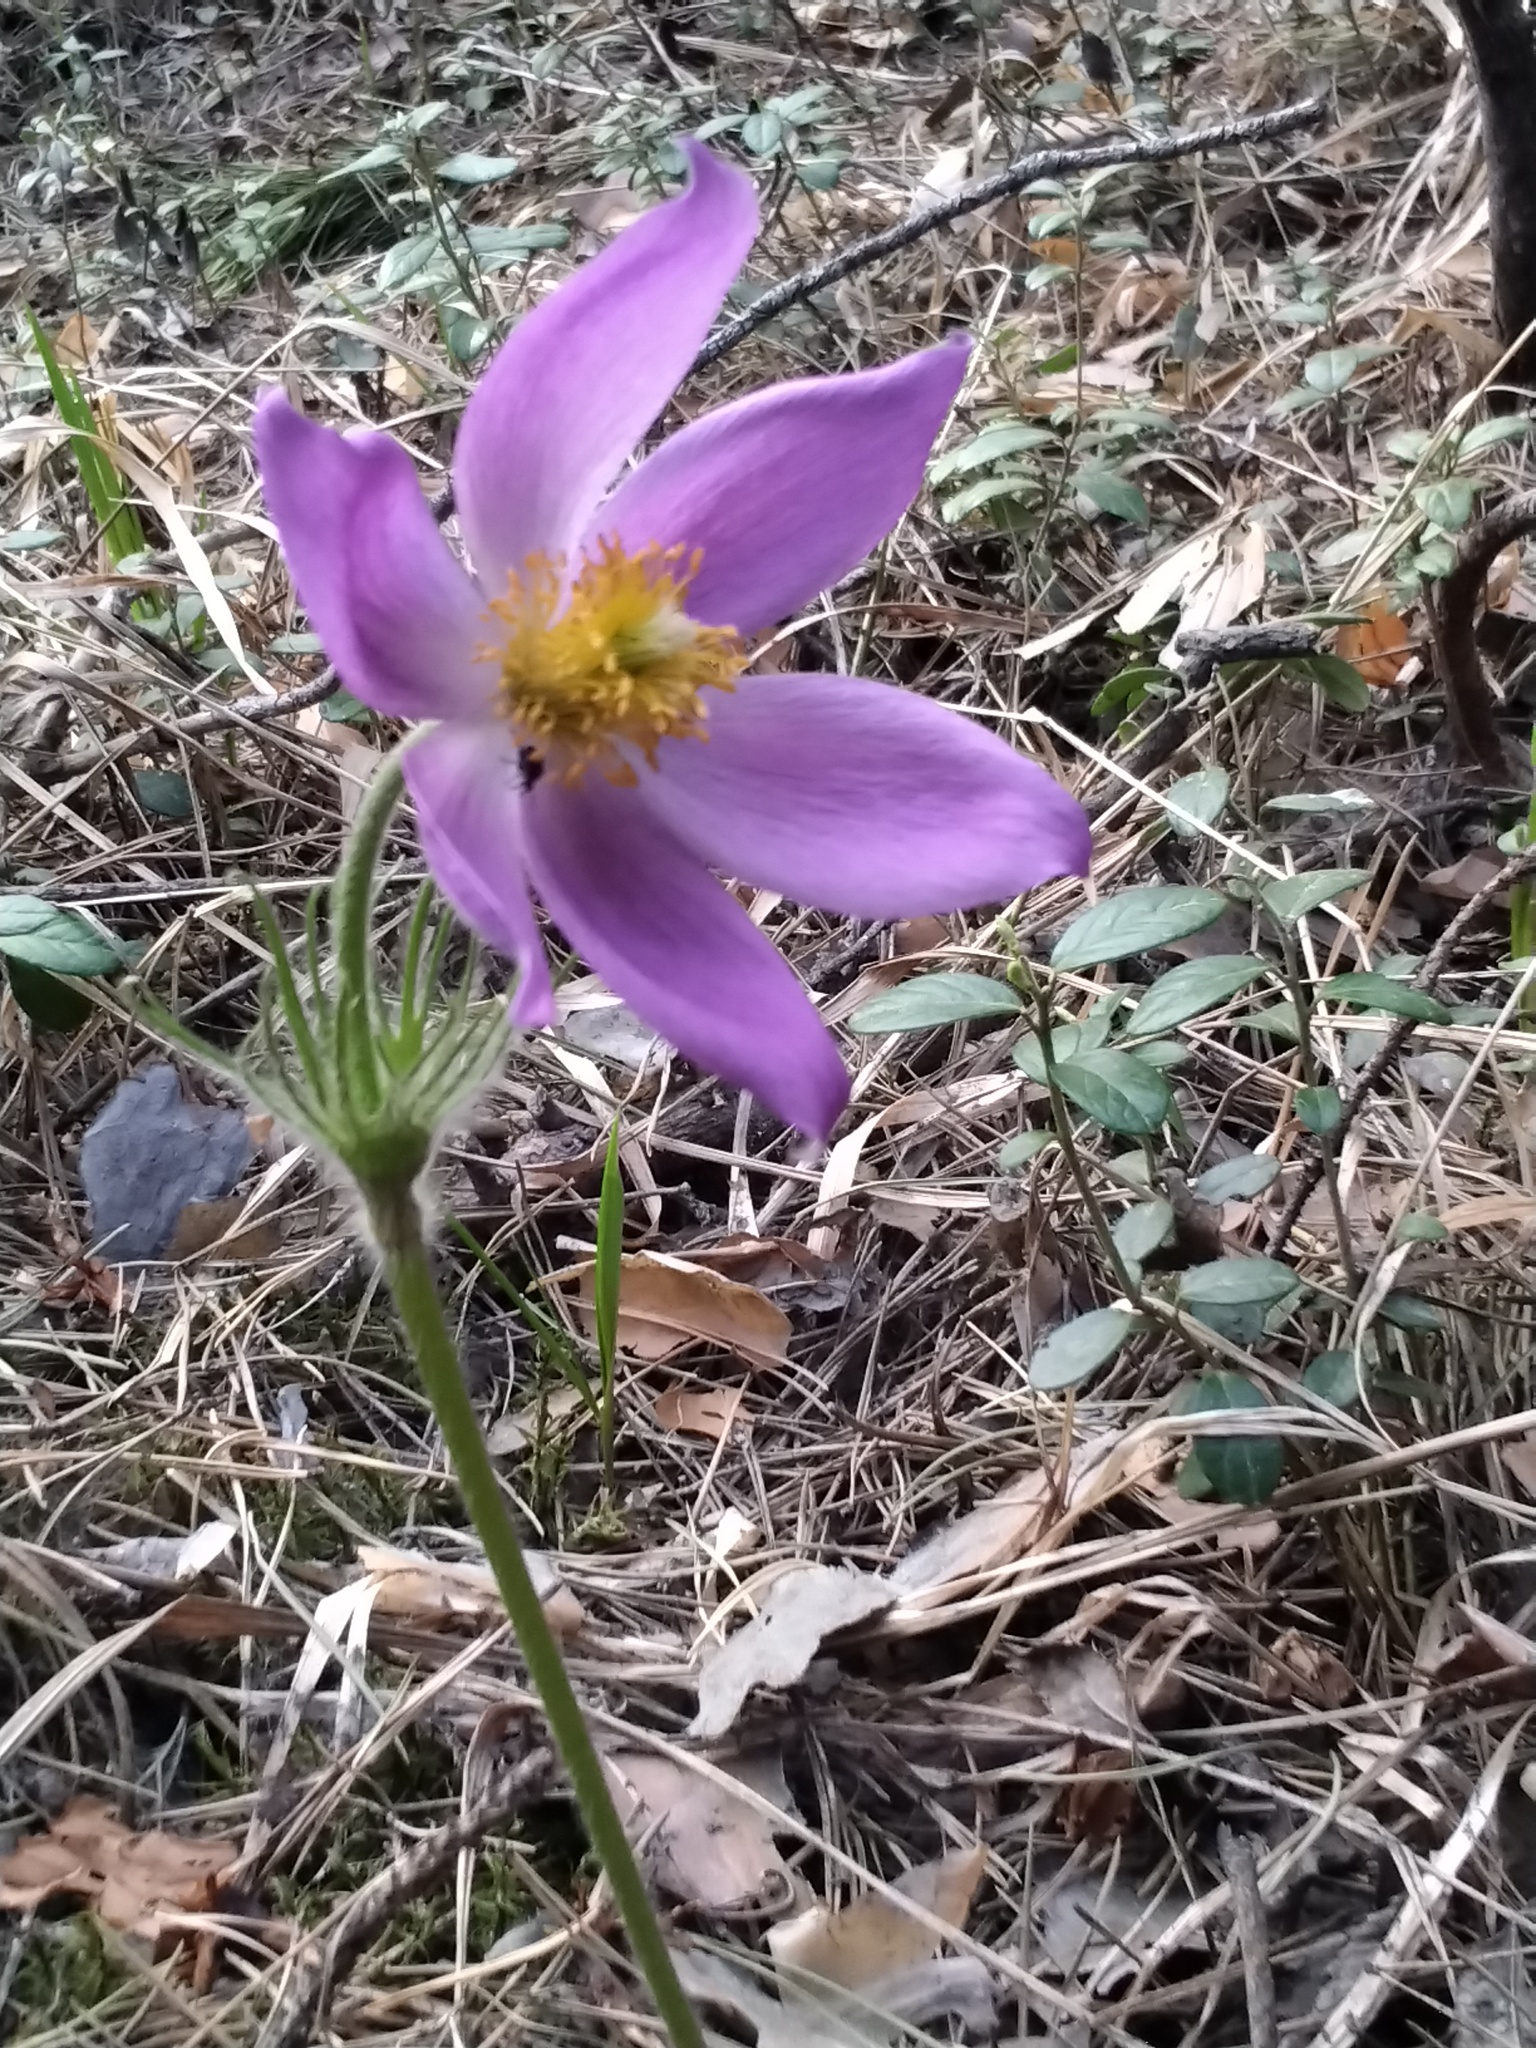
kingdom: Plantae
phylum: Tracheophyta
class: Magnoliopsida
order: Ranunculales
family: Ranunculaceae
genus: Pulsatilla
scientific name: Pulsatilla patens
